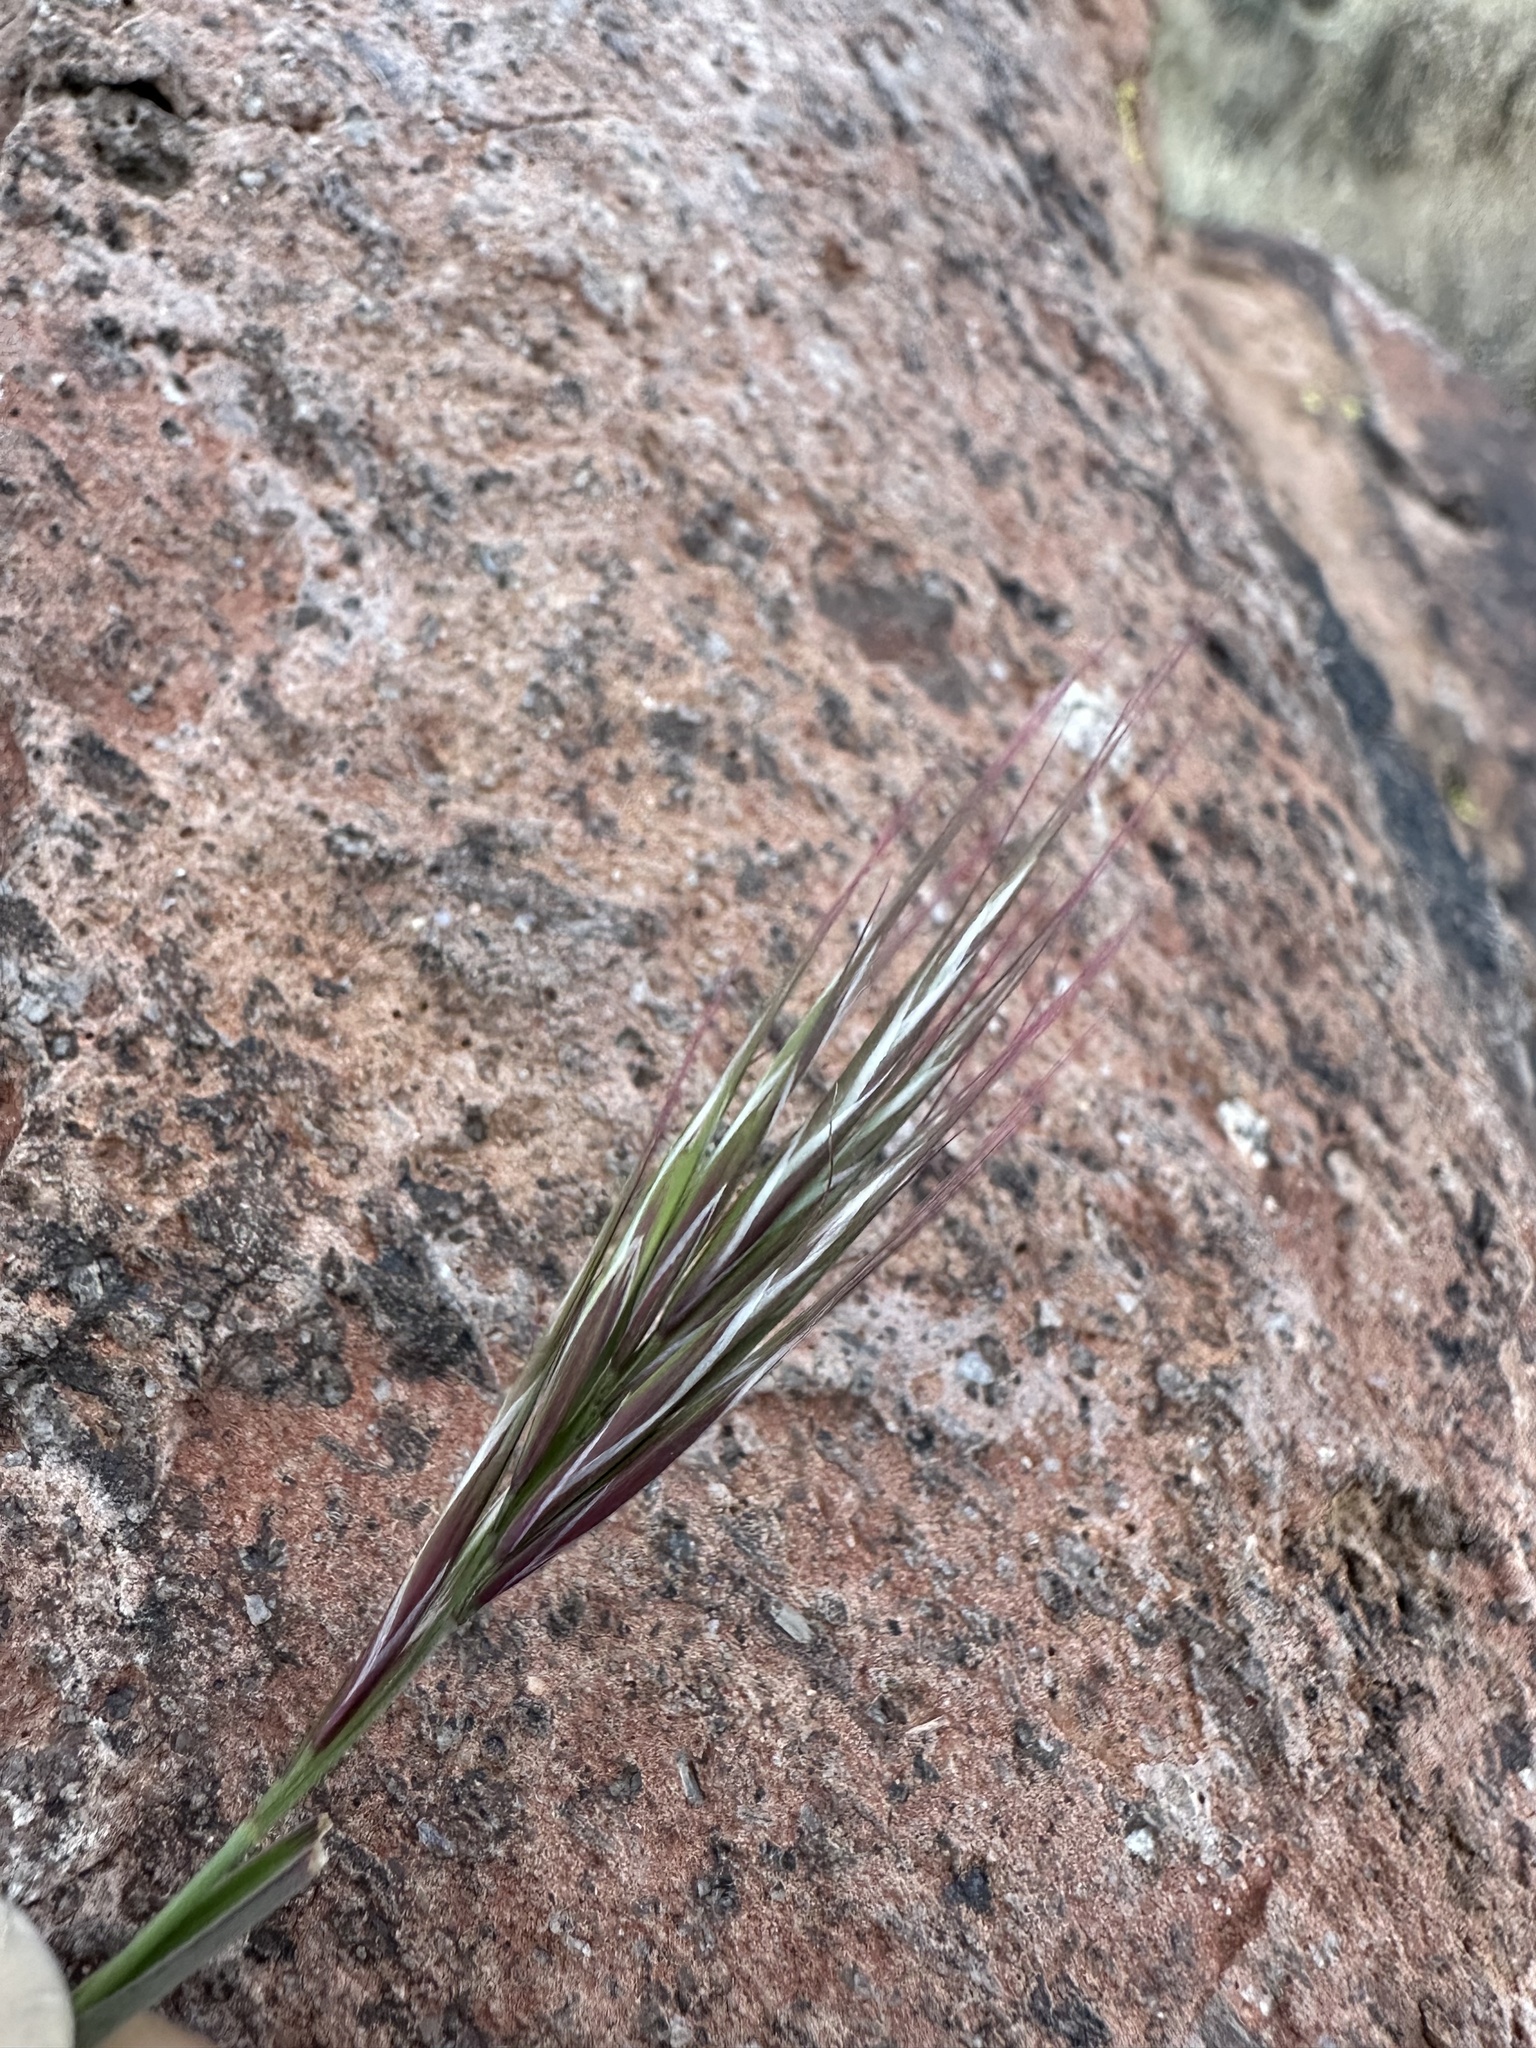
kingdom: Plantae
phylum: Tracheophyta
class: Liliopsida
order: Poales
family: Poaceae
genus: Bromus
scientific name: Bromus rubens
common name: Red brome
